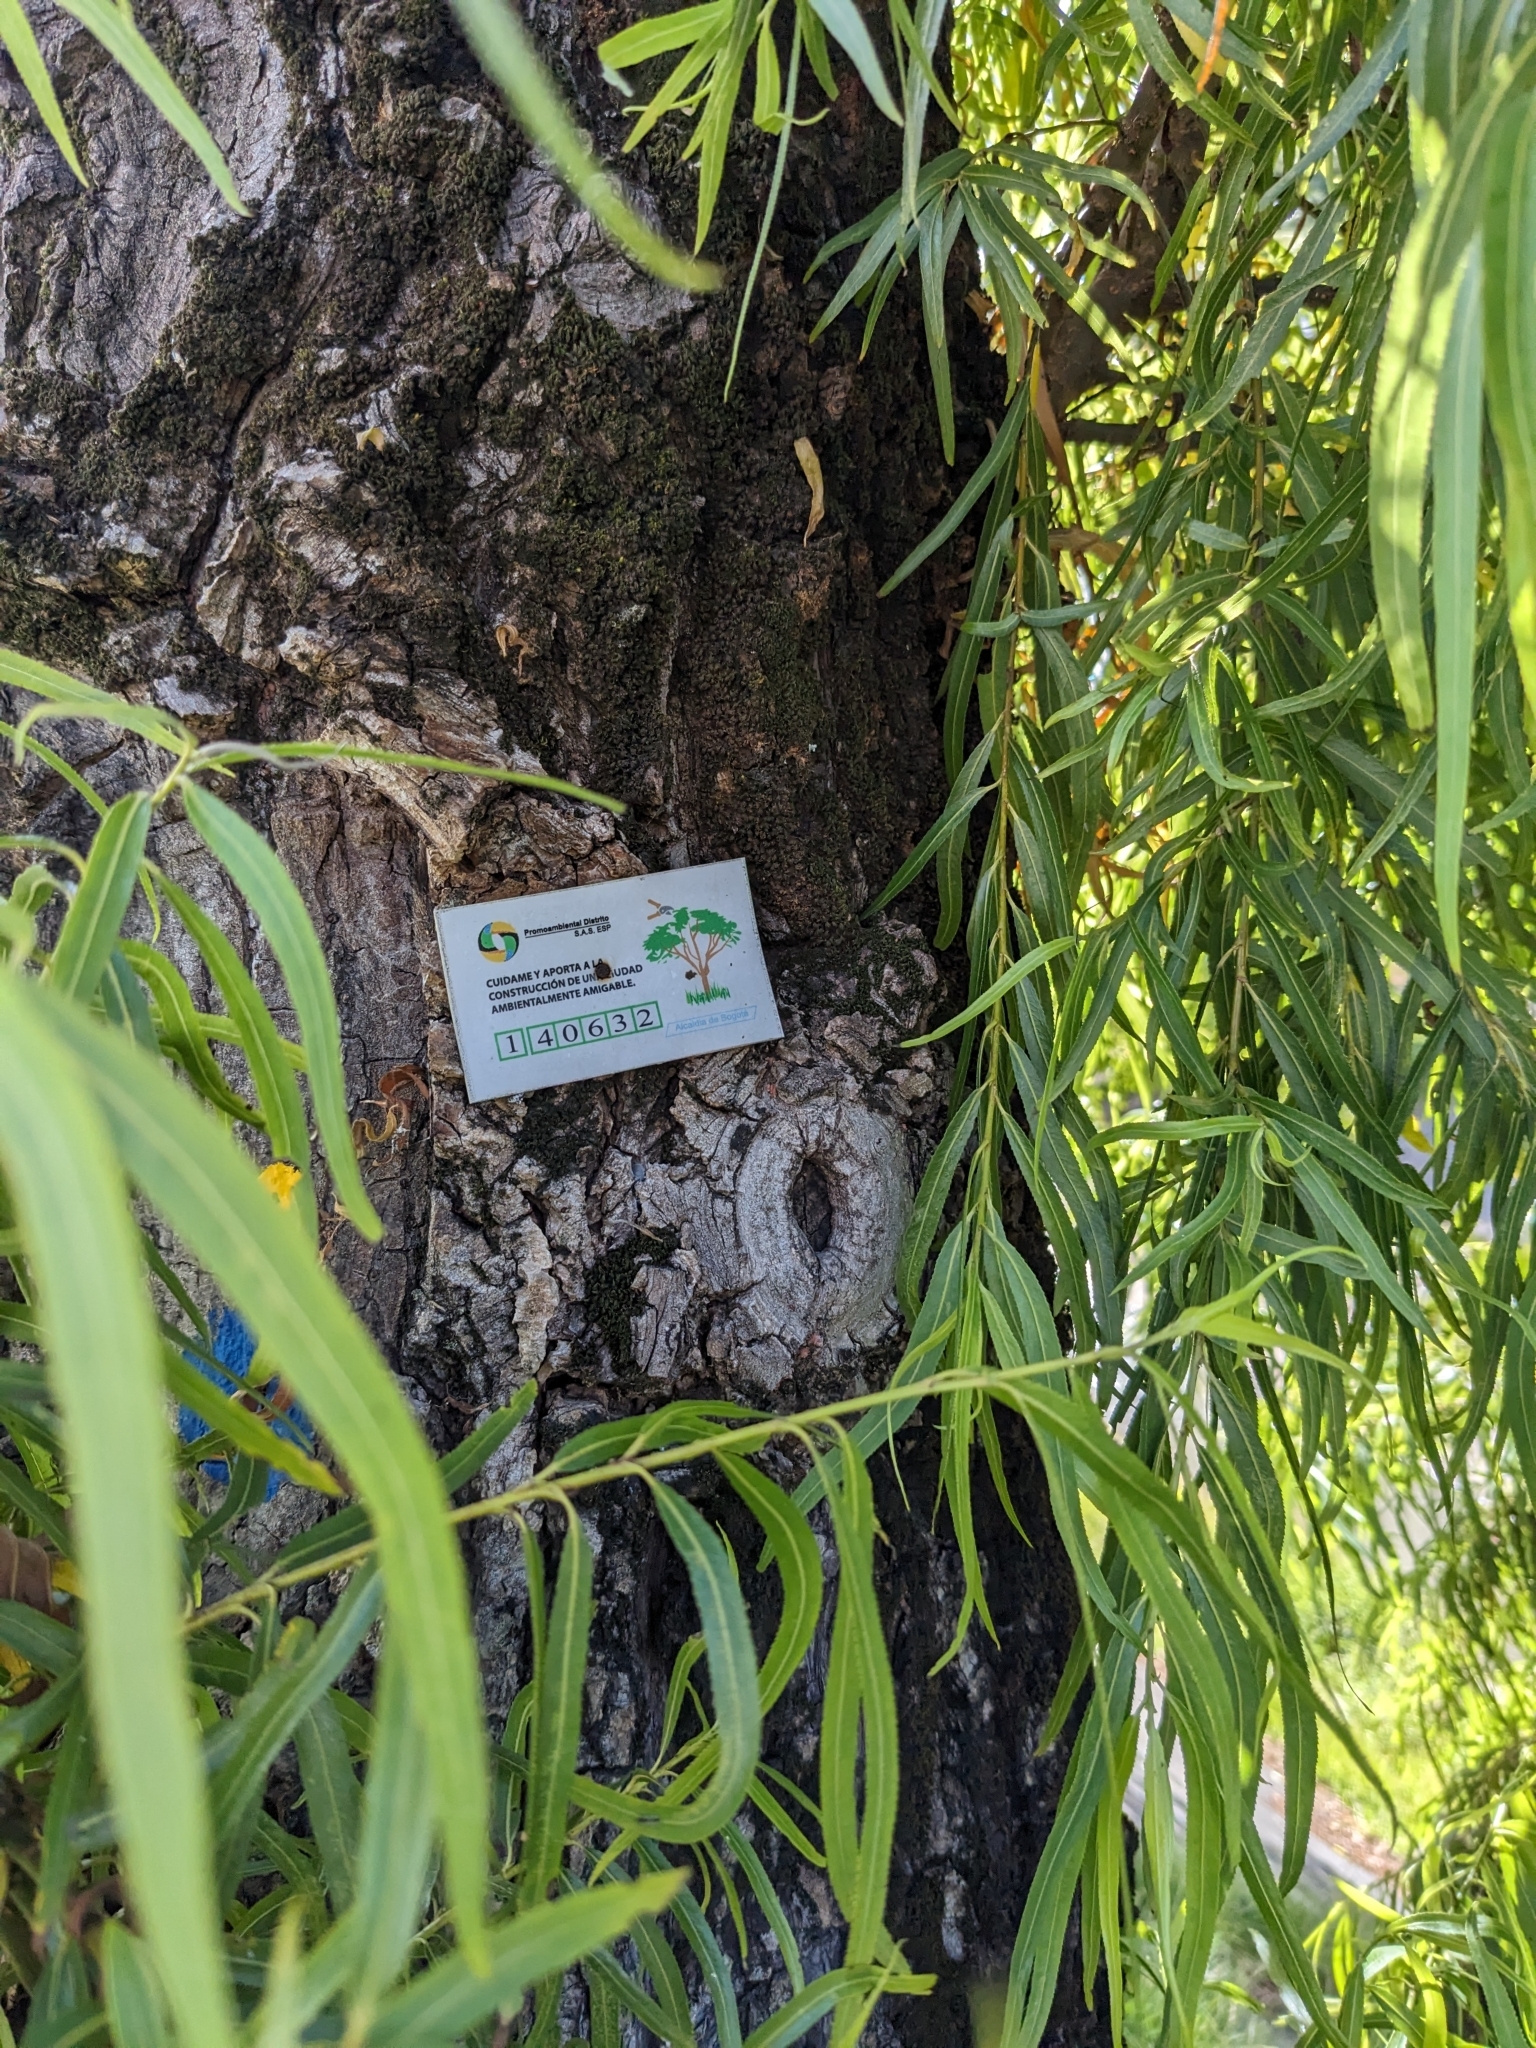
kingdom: Plantae
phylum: Tracheophyta
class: Magnoliopsida
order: Malpighiales
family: Salicaceae
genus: Salix
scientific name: Salix humboldtiana
